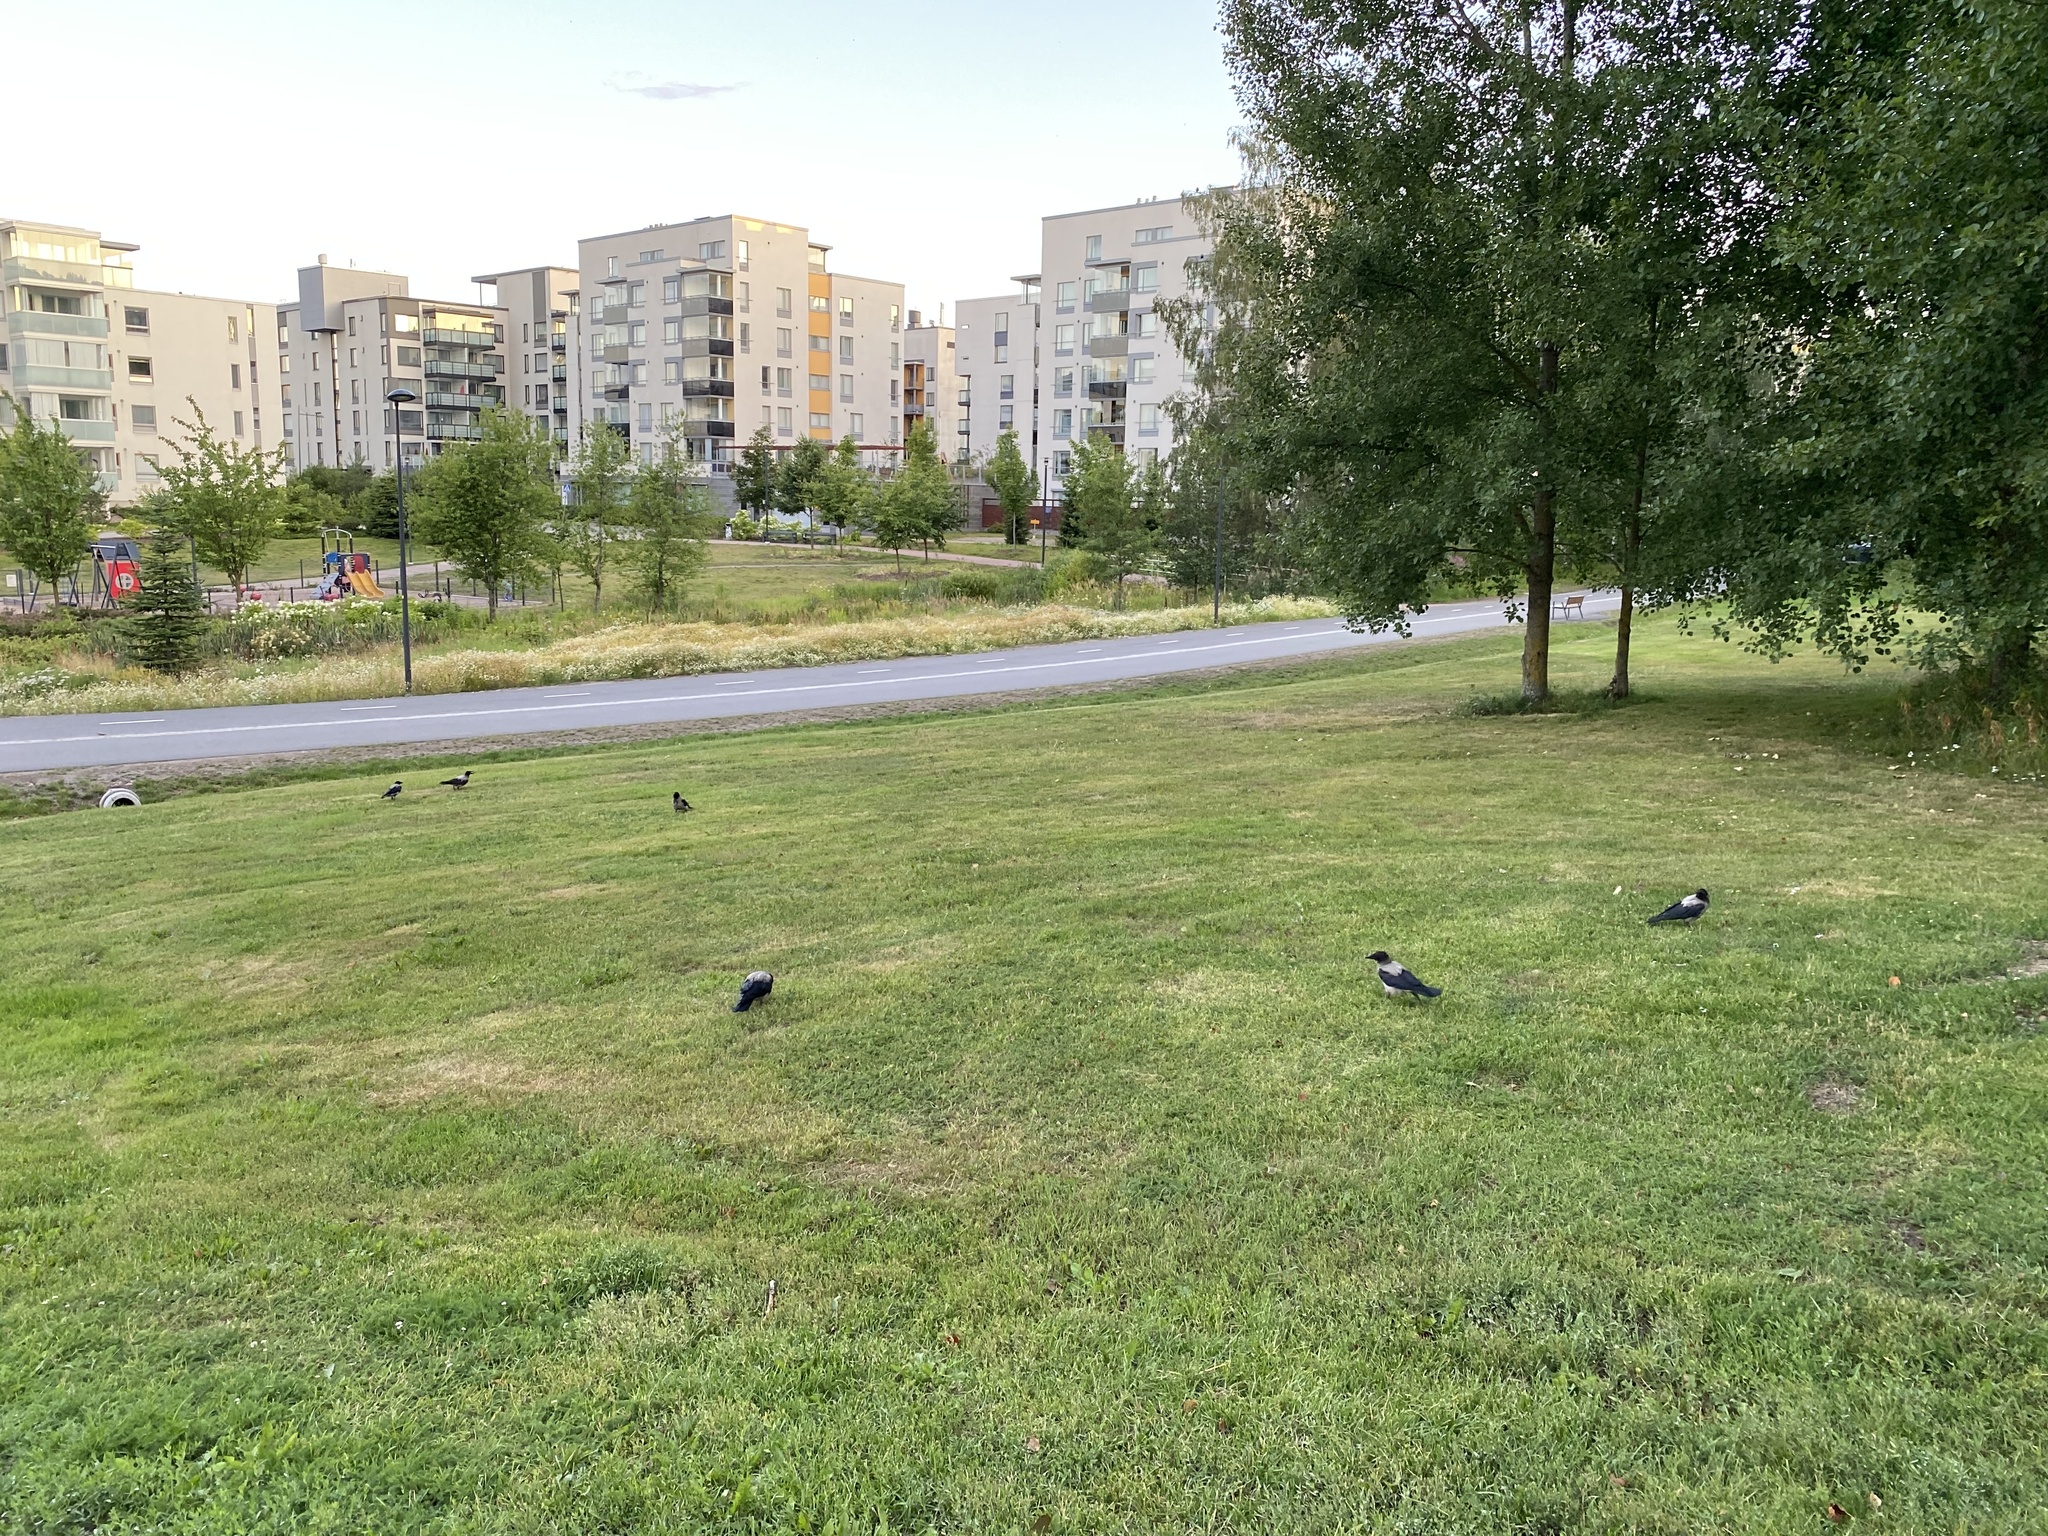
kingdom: Animalia
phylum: Chordata
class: Aves
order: Passeriformes
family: Corvidae
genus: Corvus
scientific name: Corvus cornix
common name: Hooded crow
